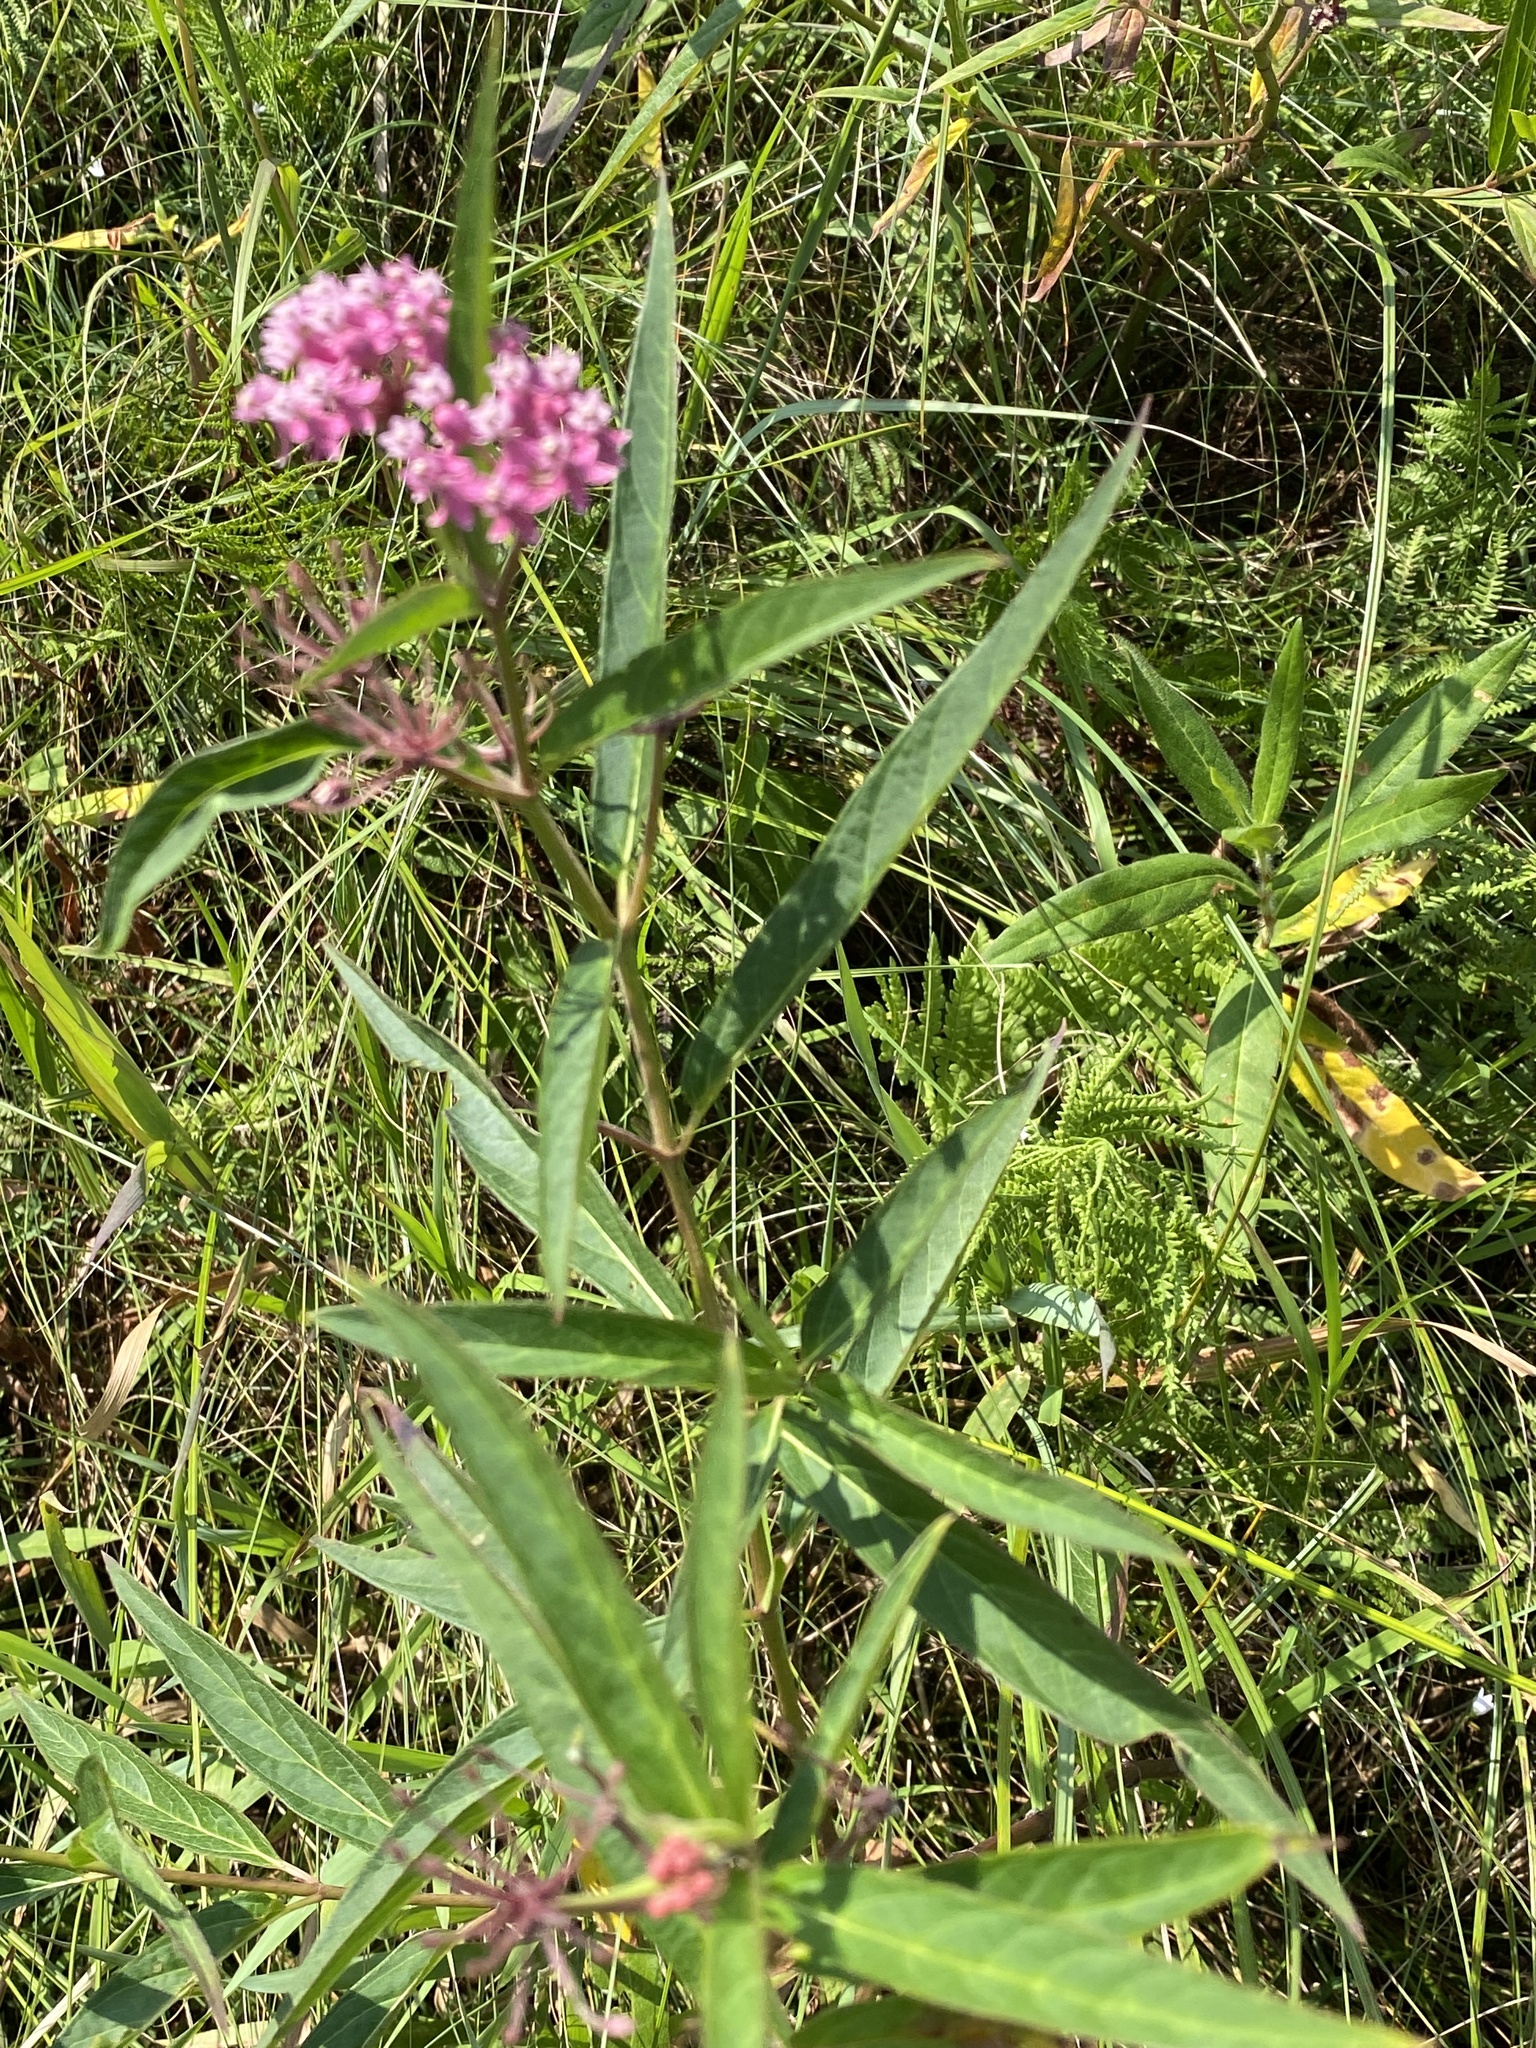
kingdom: Plantae
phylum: Tracheophyta
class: Magnoliopsida
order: Gentianales
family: Apocynaceae
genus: Asclepias
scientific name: Asclepias incarnata
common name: Swamp milkweed
